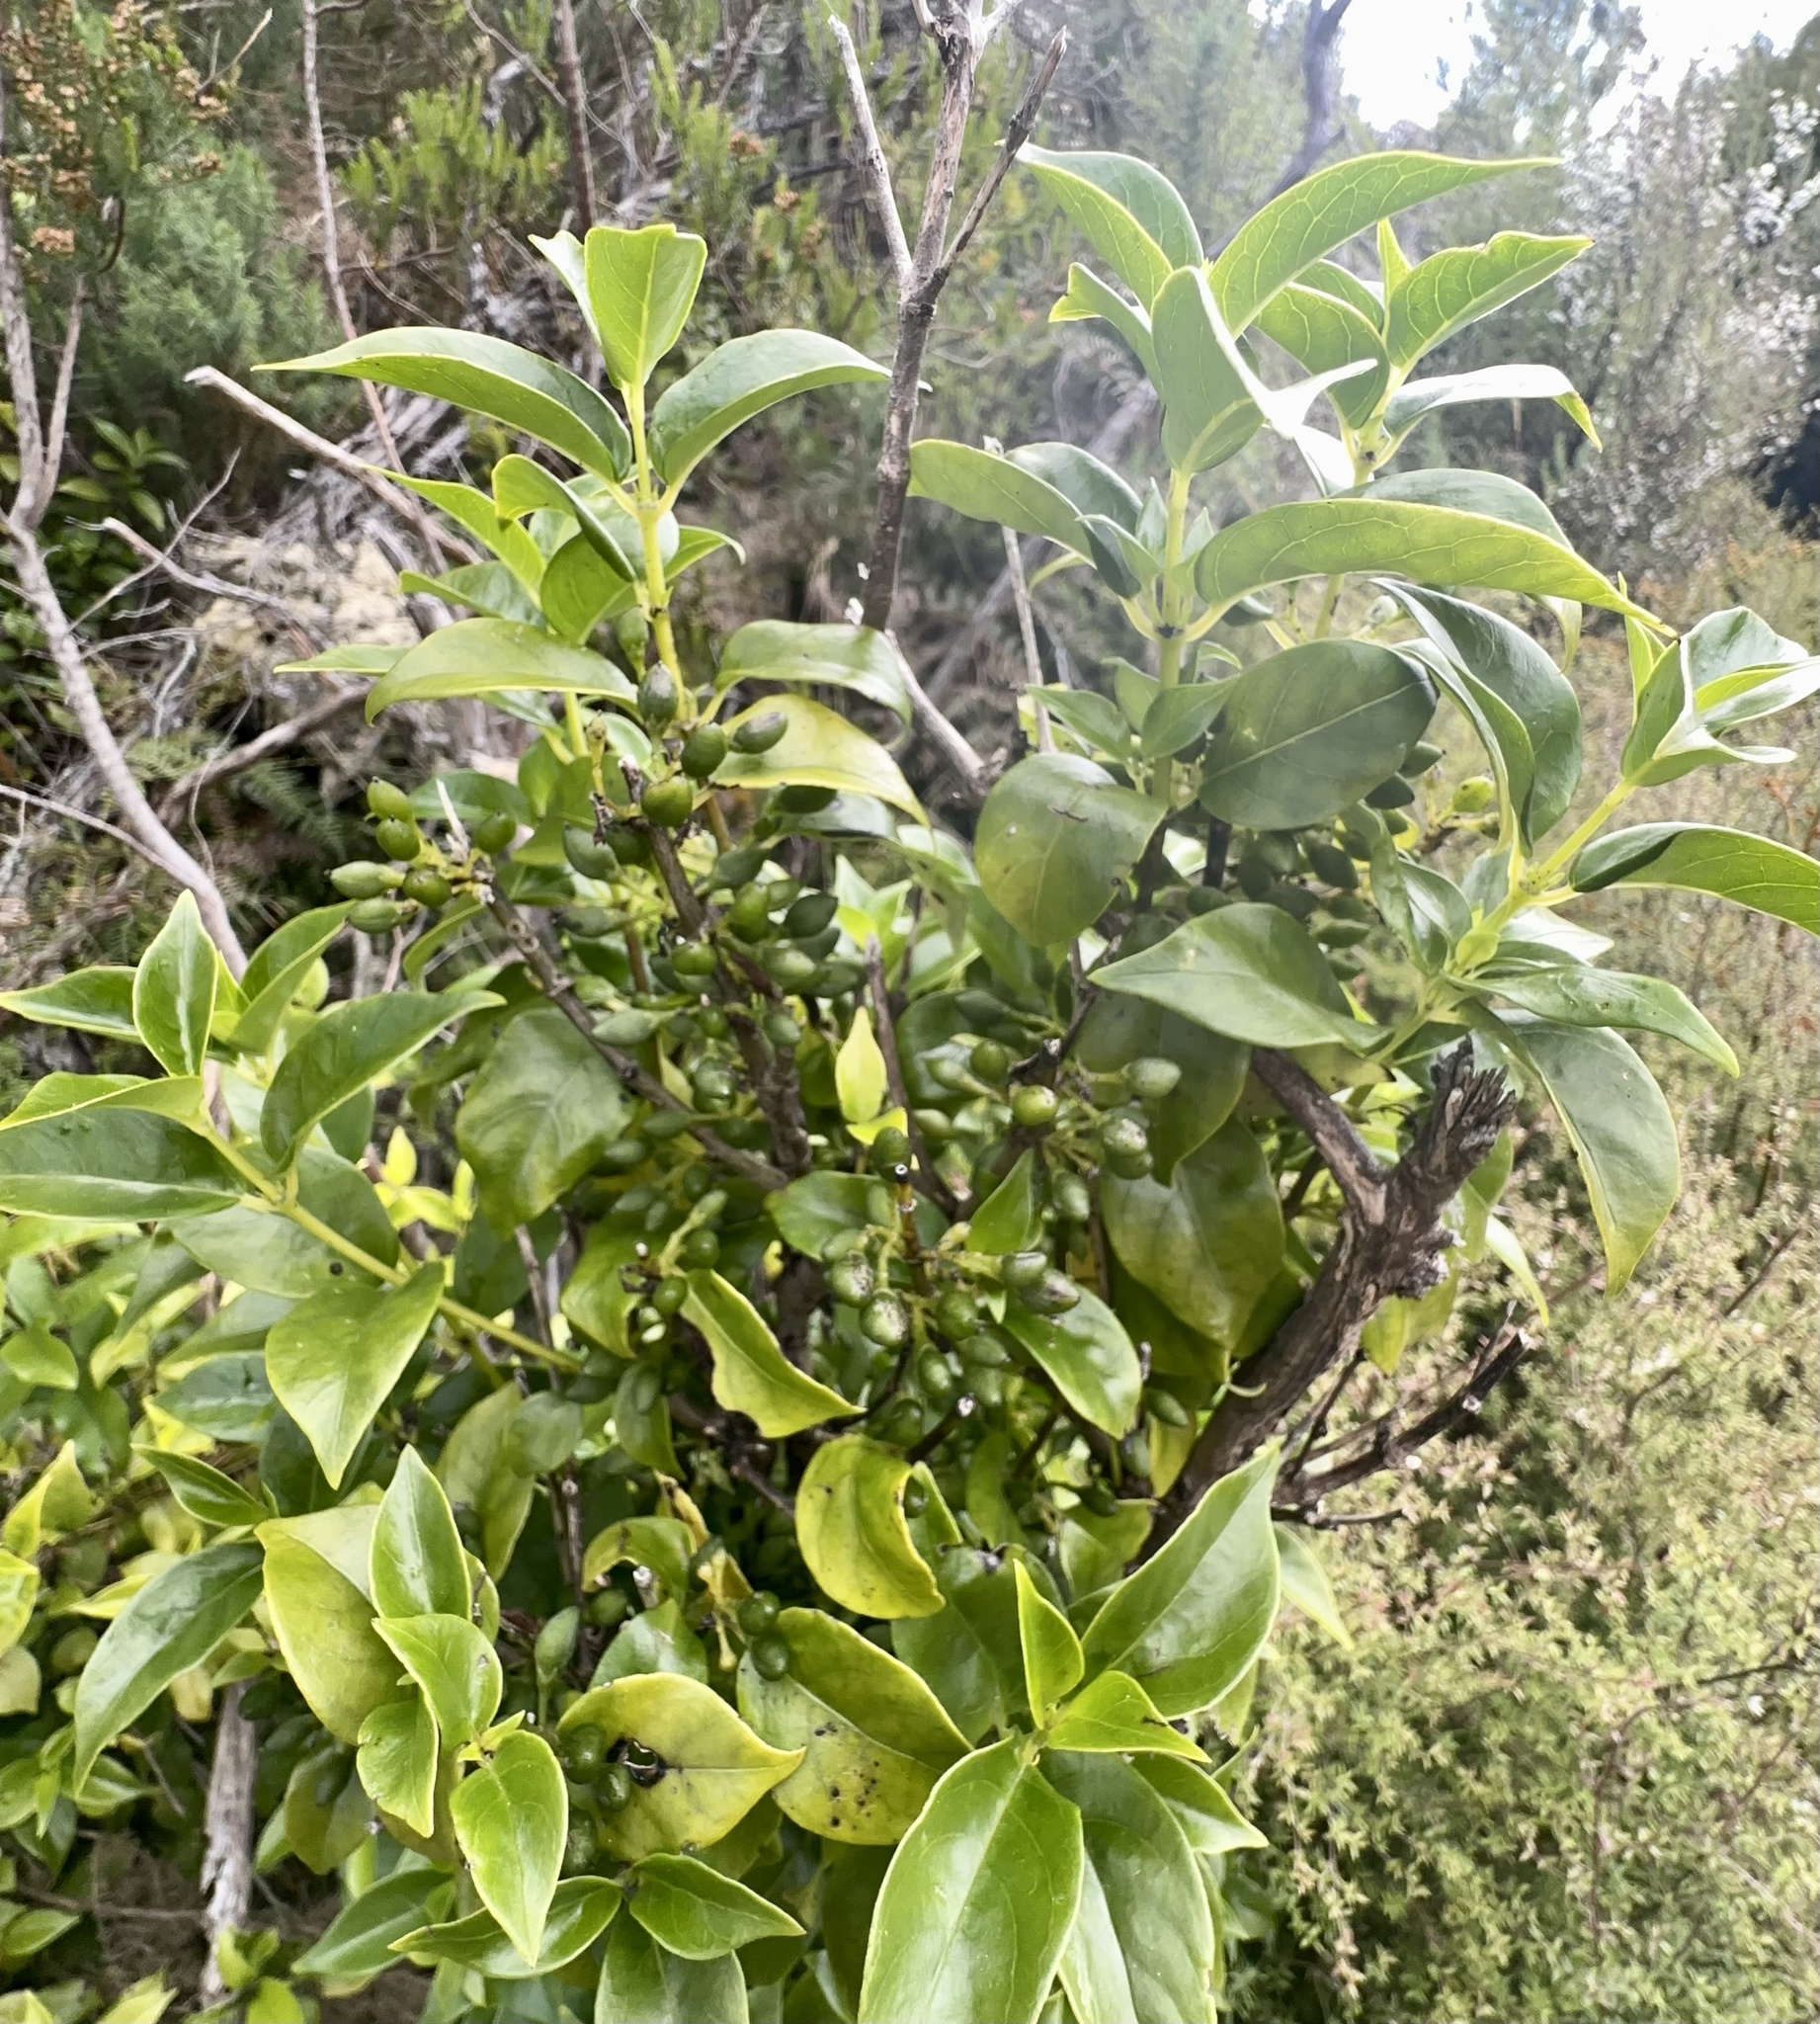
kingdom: Plantae
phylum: Tracheophyta
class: Magnoliopsida
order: Gentianales
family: Loganiaceae
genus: Geniostoma
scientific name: Geniostoma ligustrifolium
